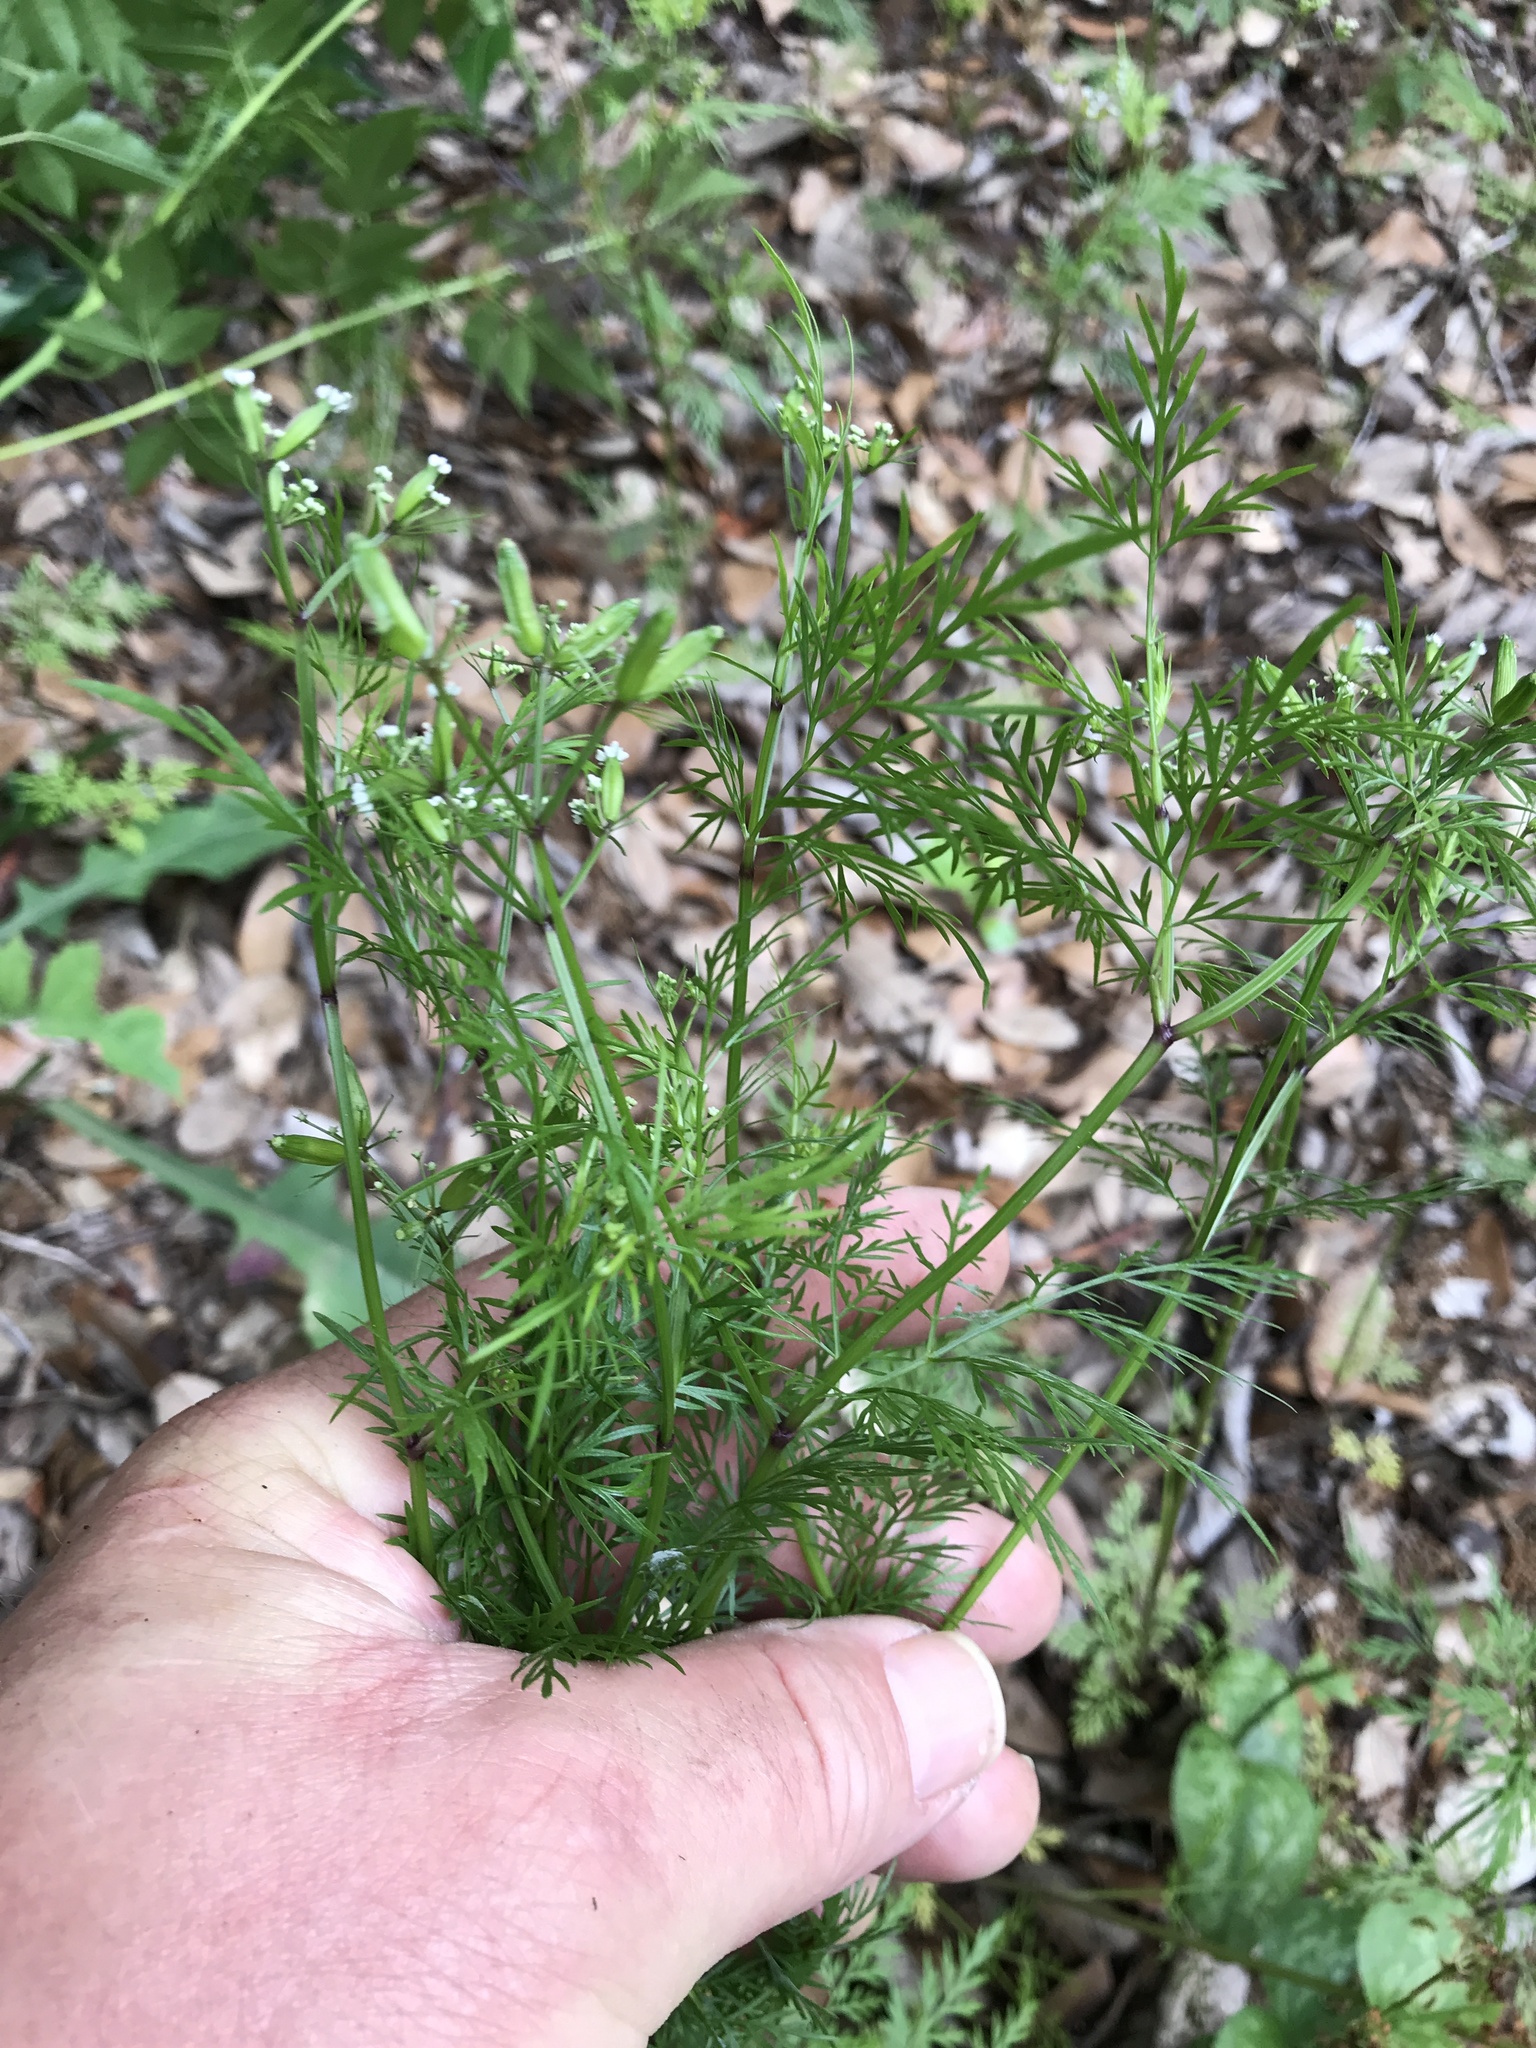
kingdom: Plantae
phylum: Tracheophyta
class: Magnoliopsida
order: Apiales
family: Apiaceae
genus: Trepocarpus
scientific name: Trepocarpus aethusae
